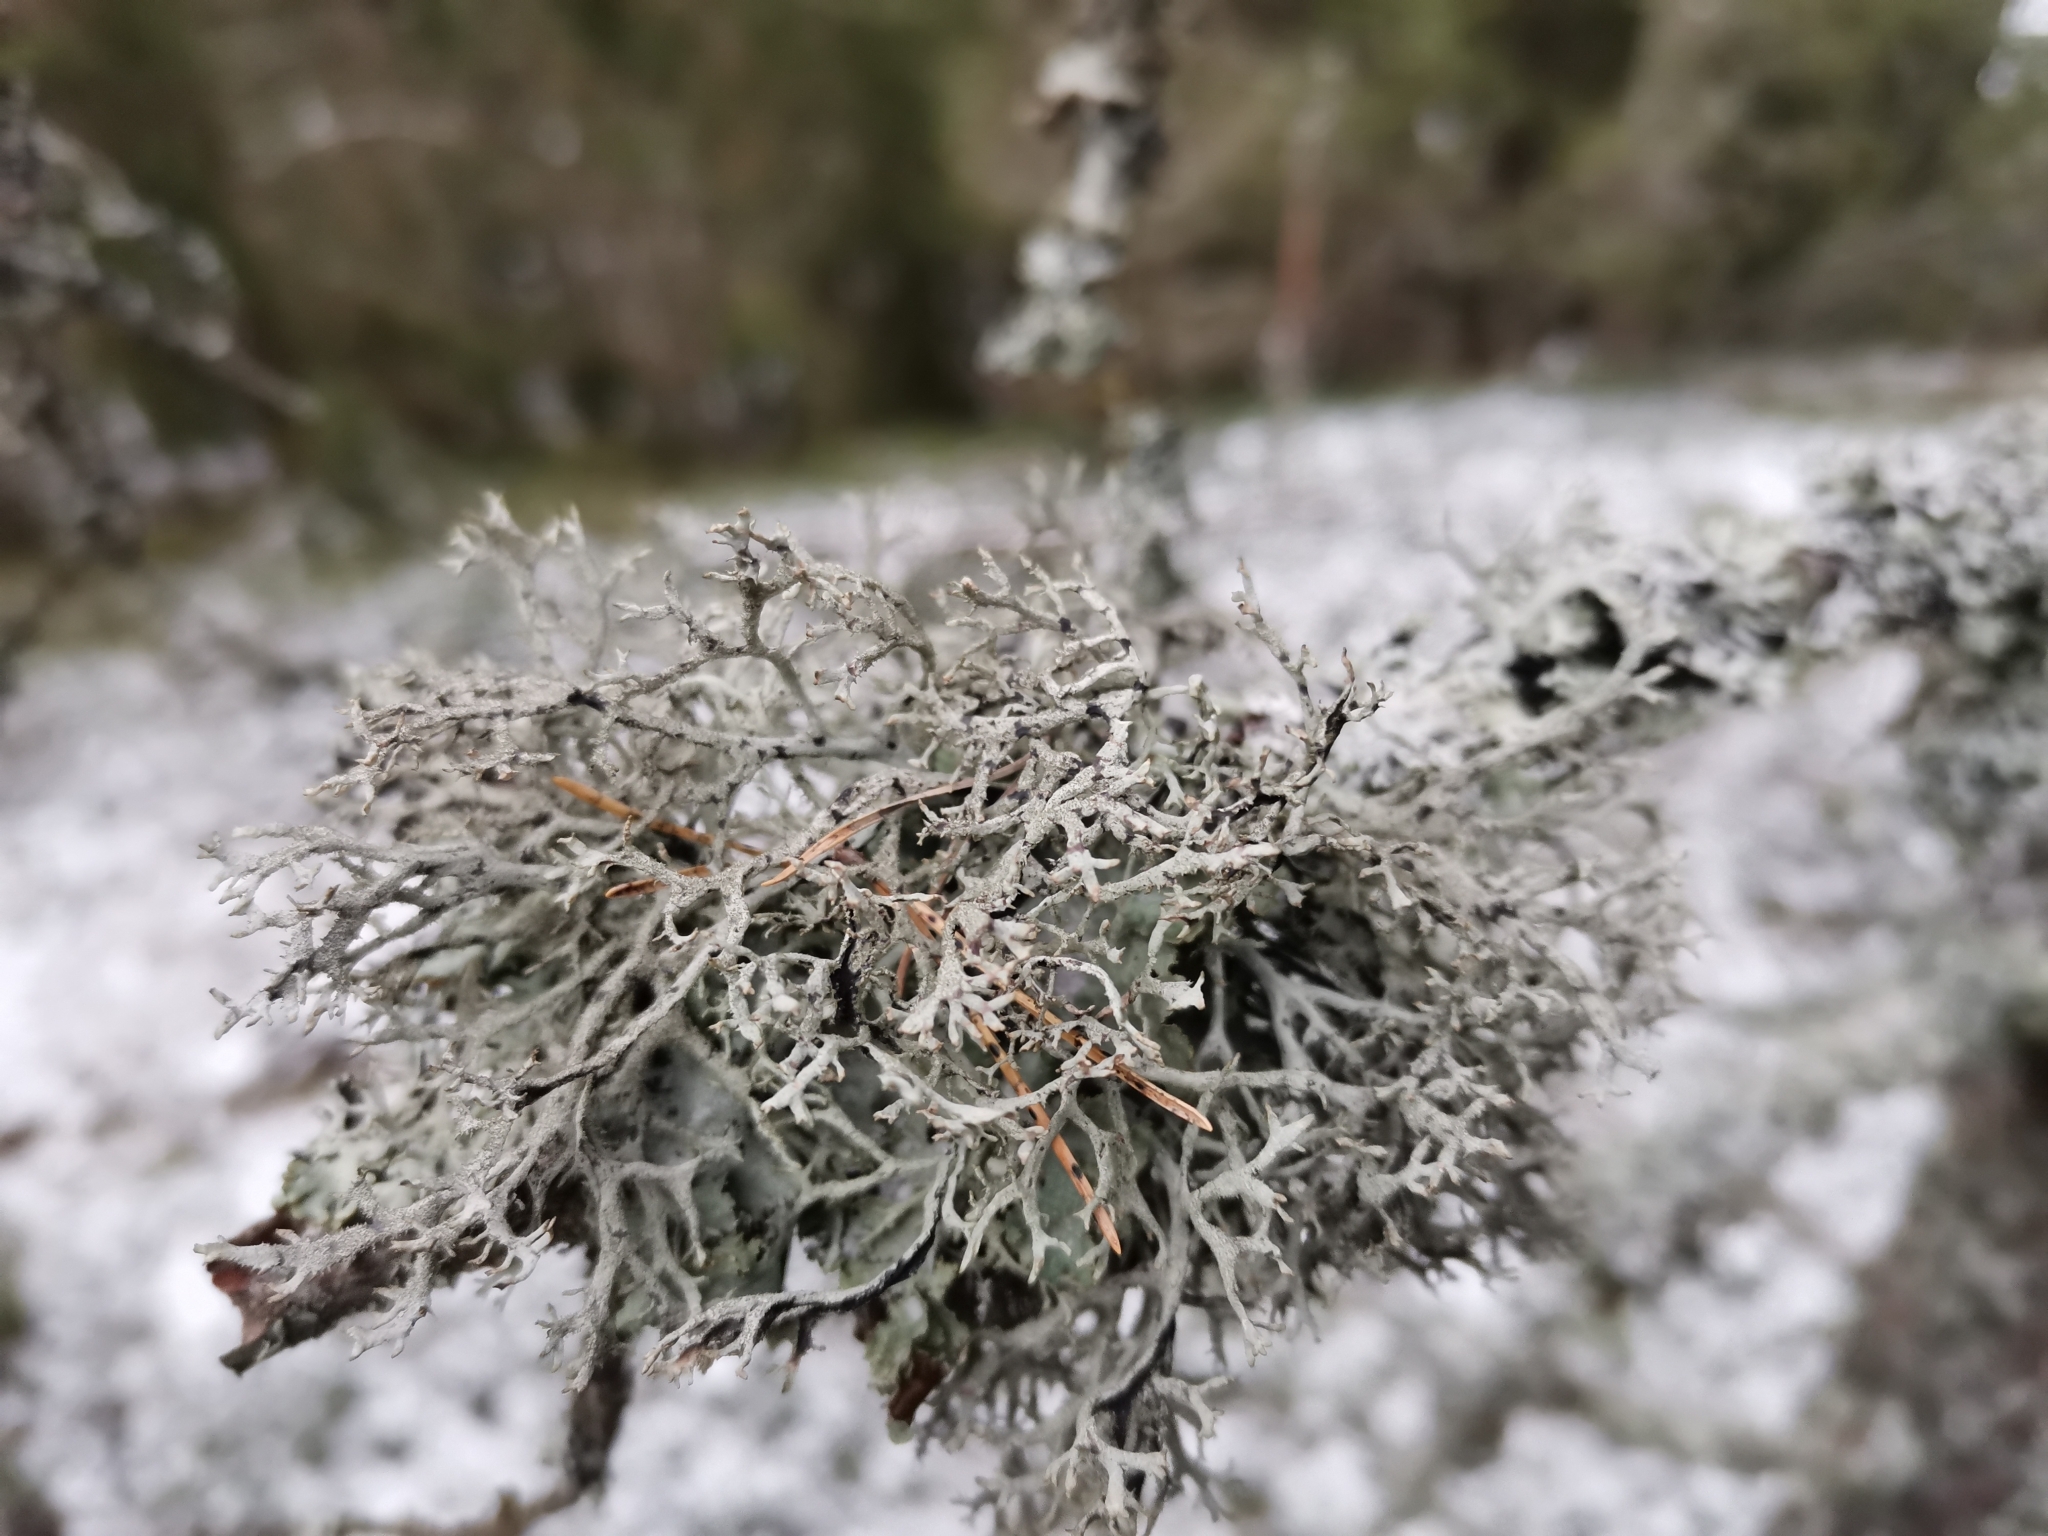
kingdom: Fungi
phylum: Ascomycota
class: Lecanoromycetes
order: Lecanorales
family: Parmeliaceae
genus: Pseudevernia
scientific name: Pseudevernia furfuracea
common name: Tree moss
